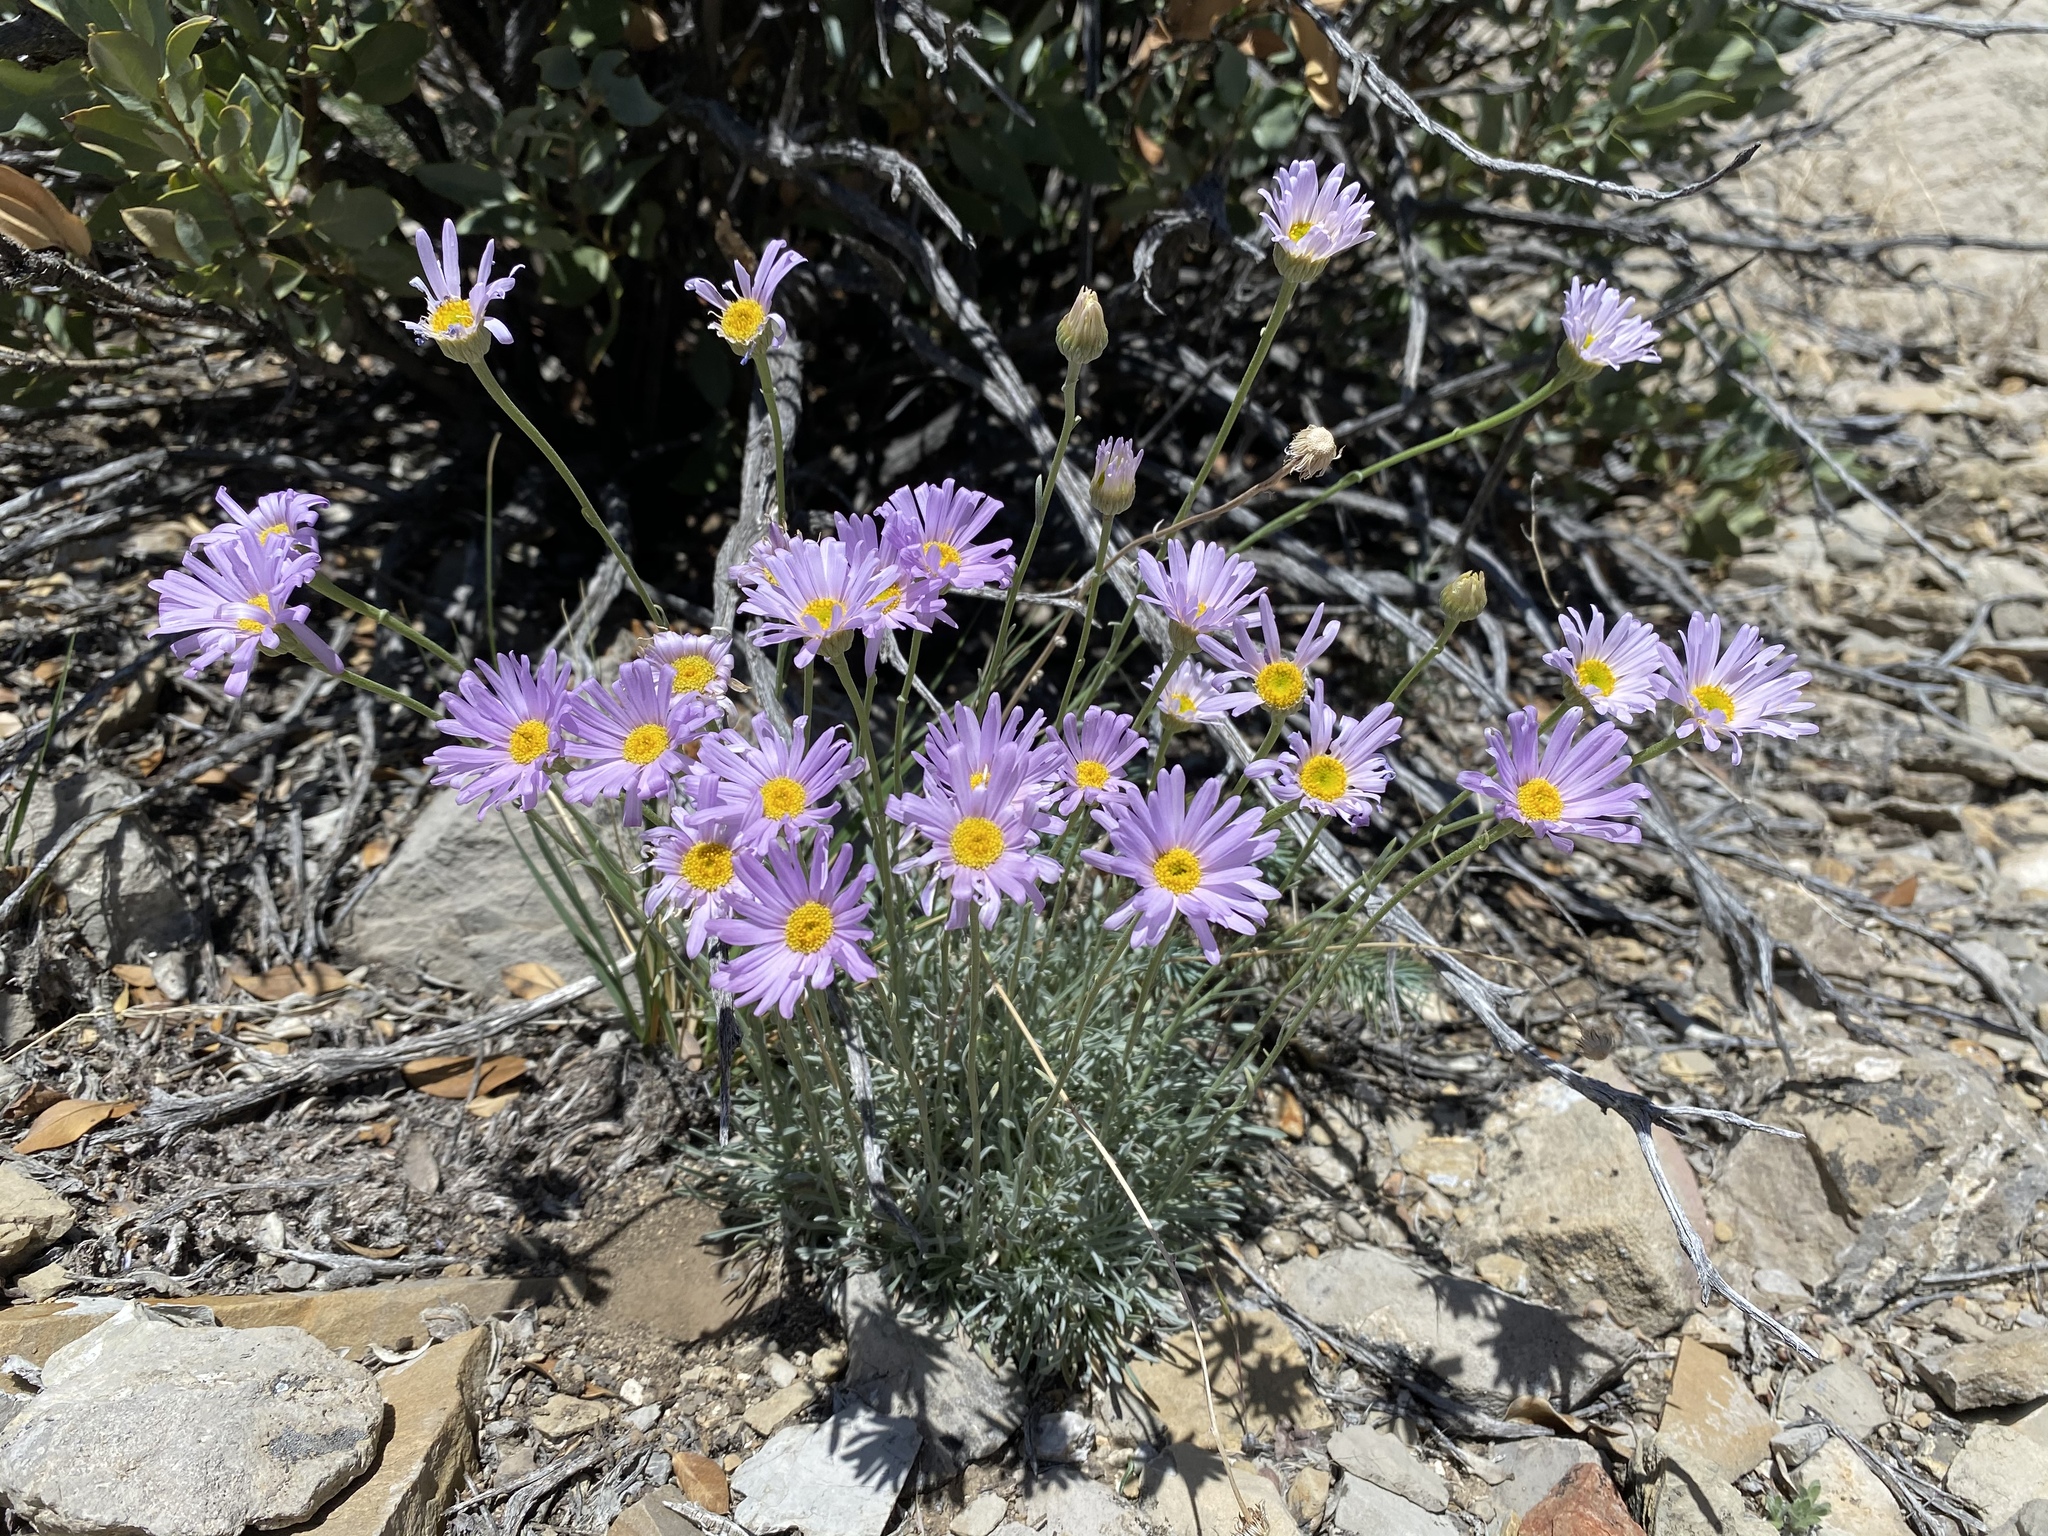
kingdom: Plantae
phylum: Tracheophyta
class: Magnoliopsida
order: Asterales
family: Asteraceae
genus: Erigeron
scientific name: Erigeron argentatus
